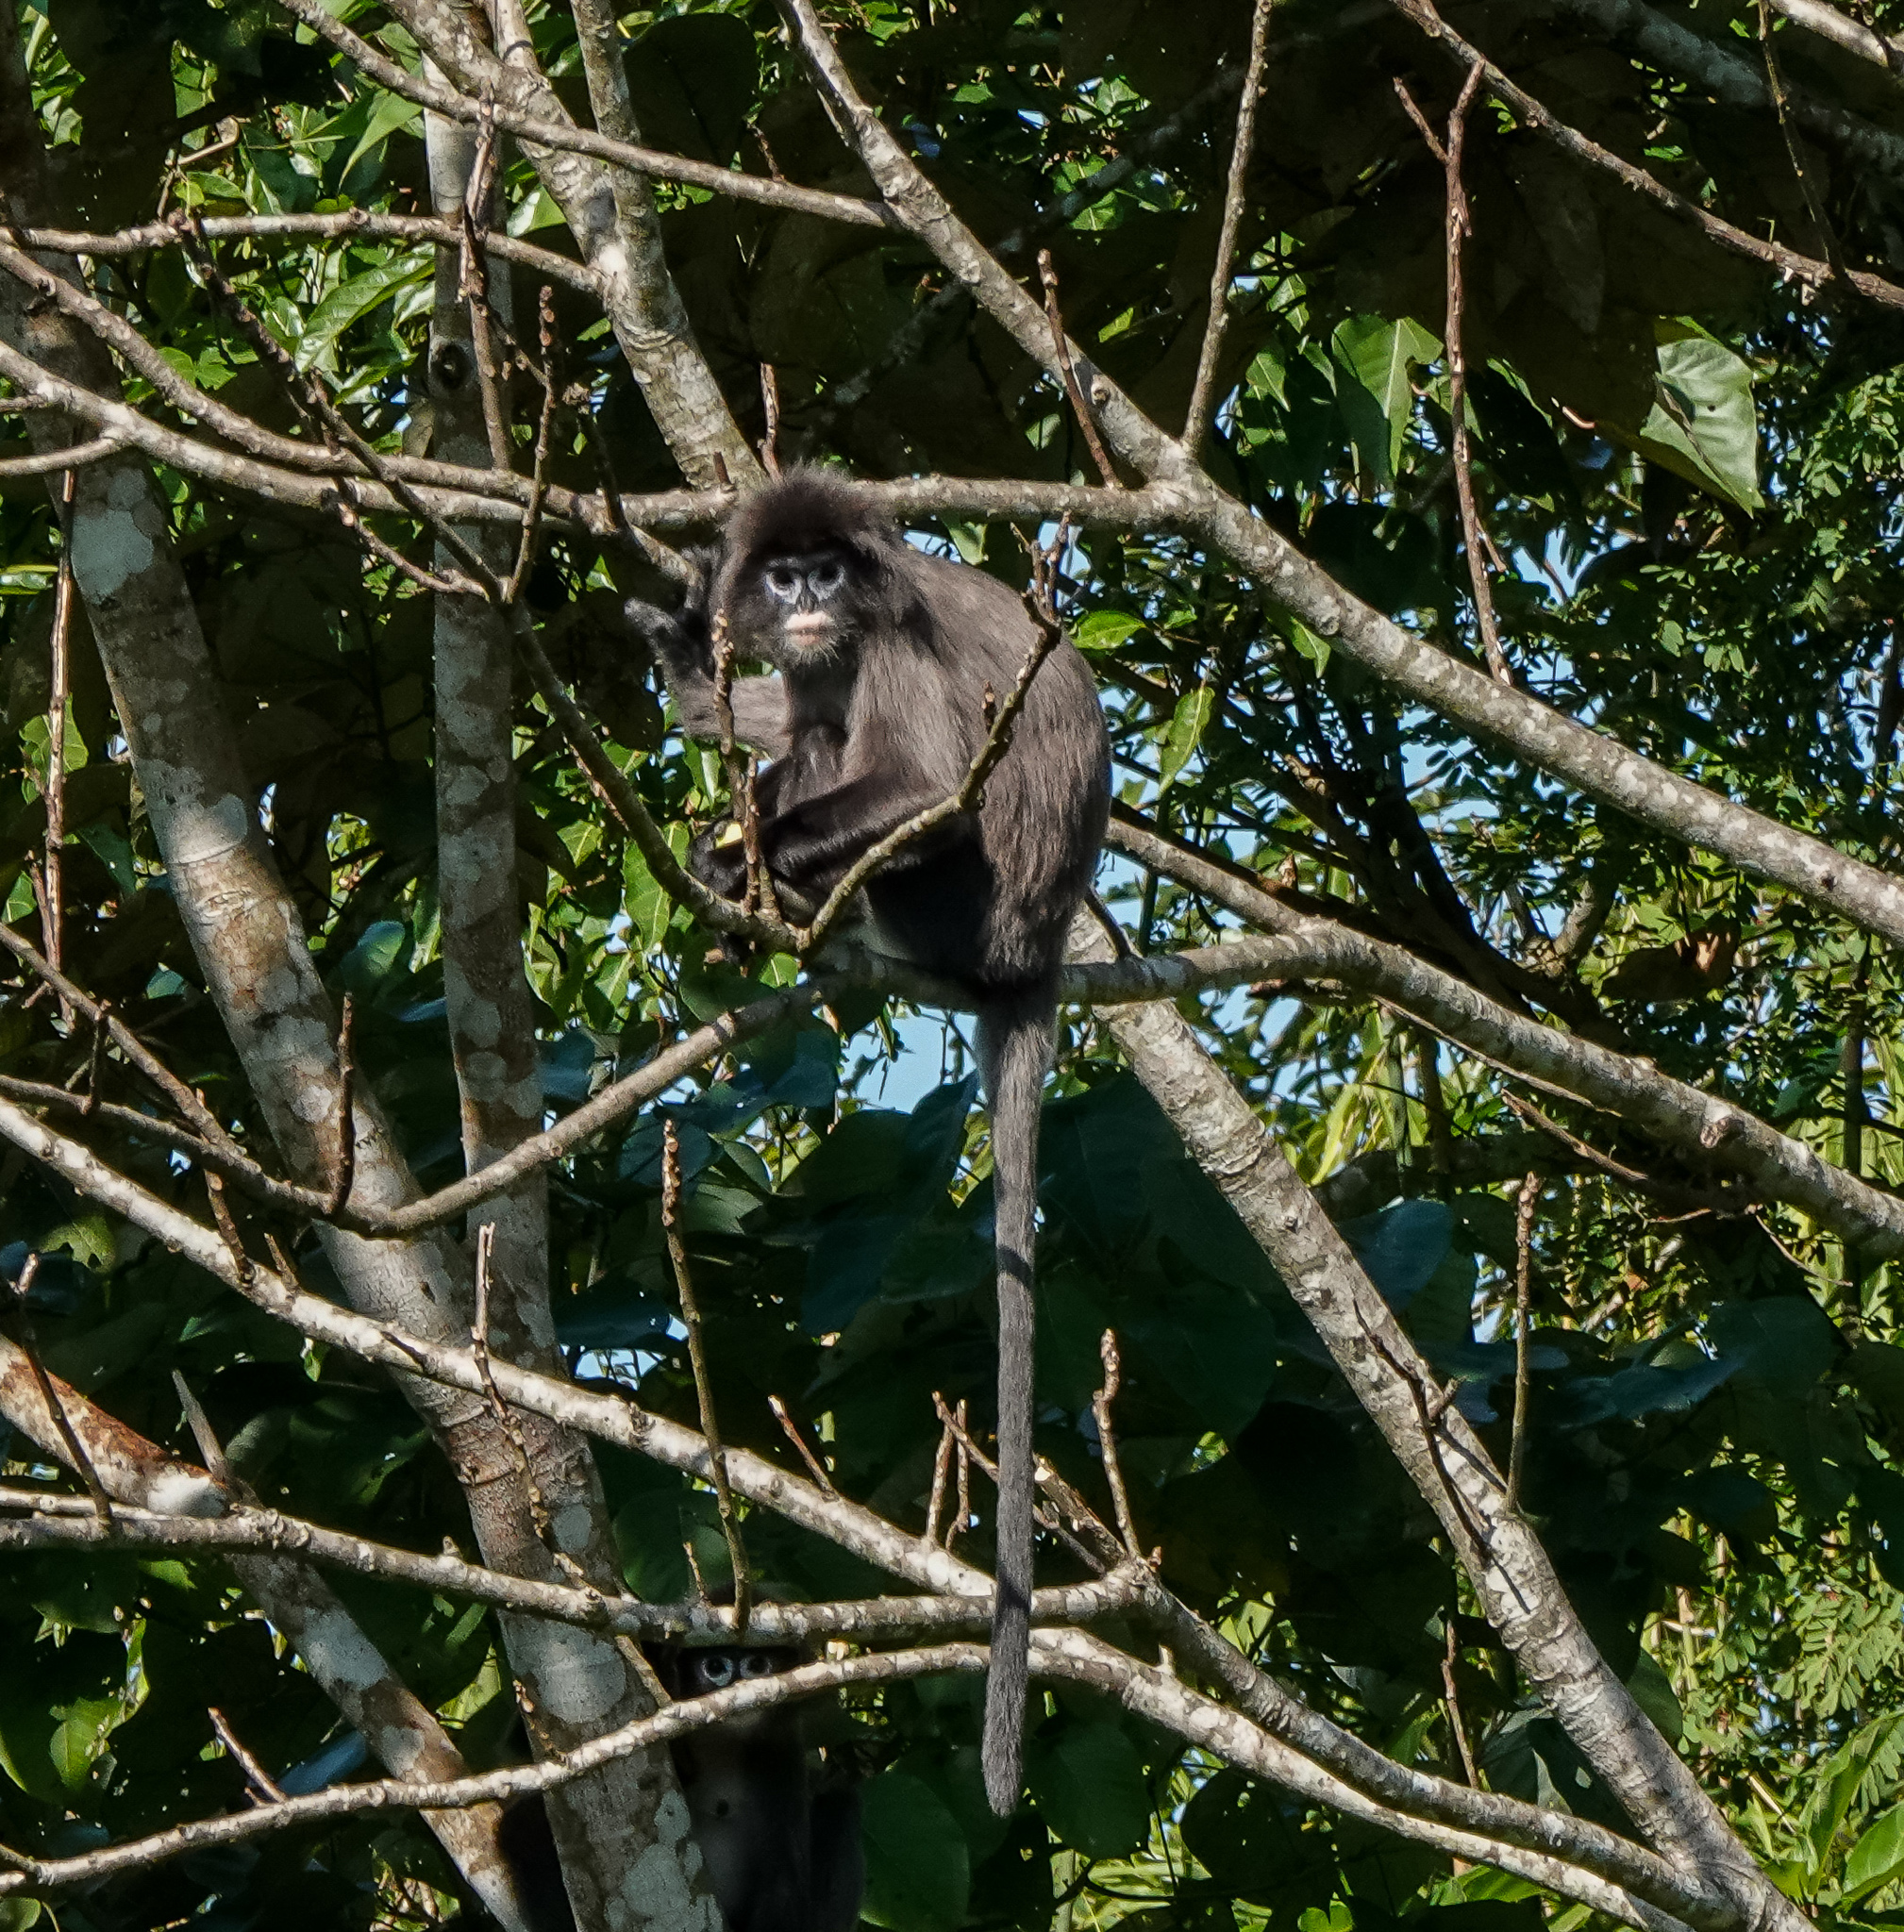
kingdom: Animalia
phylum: Chordata
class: Mammalia
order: Primates
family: Cercopithecidae
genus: Trachypithecus
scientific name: Trachypithecus phayrei
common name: Phayre's leaf monkey
